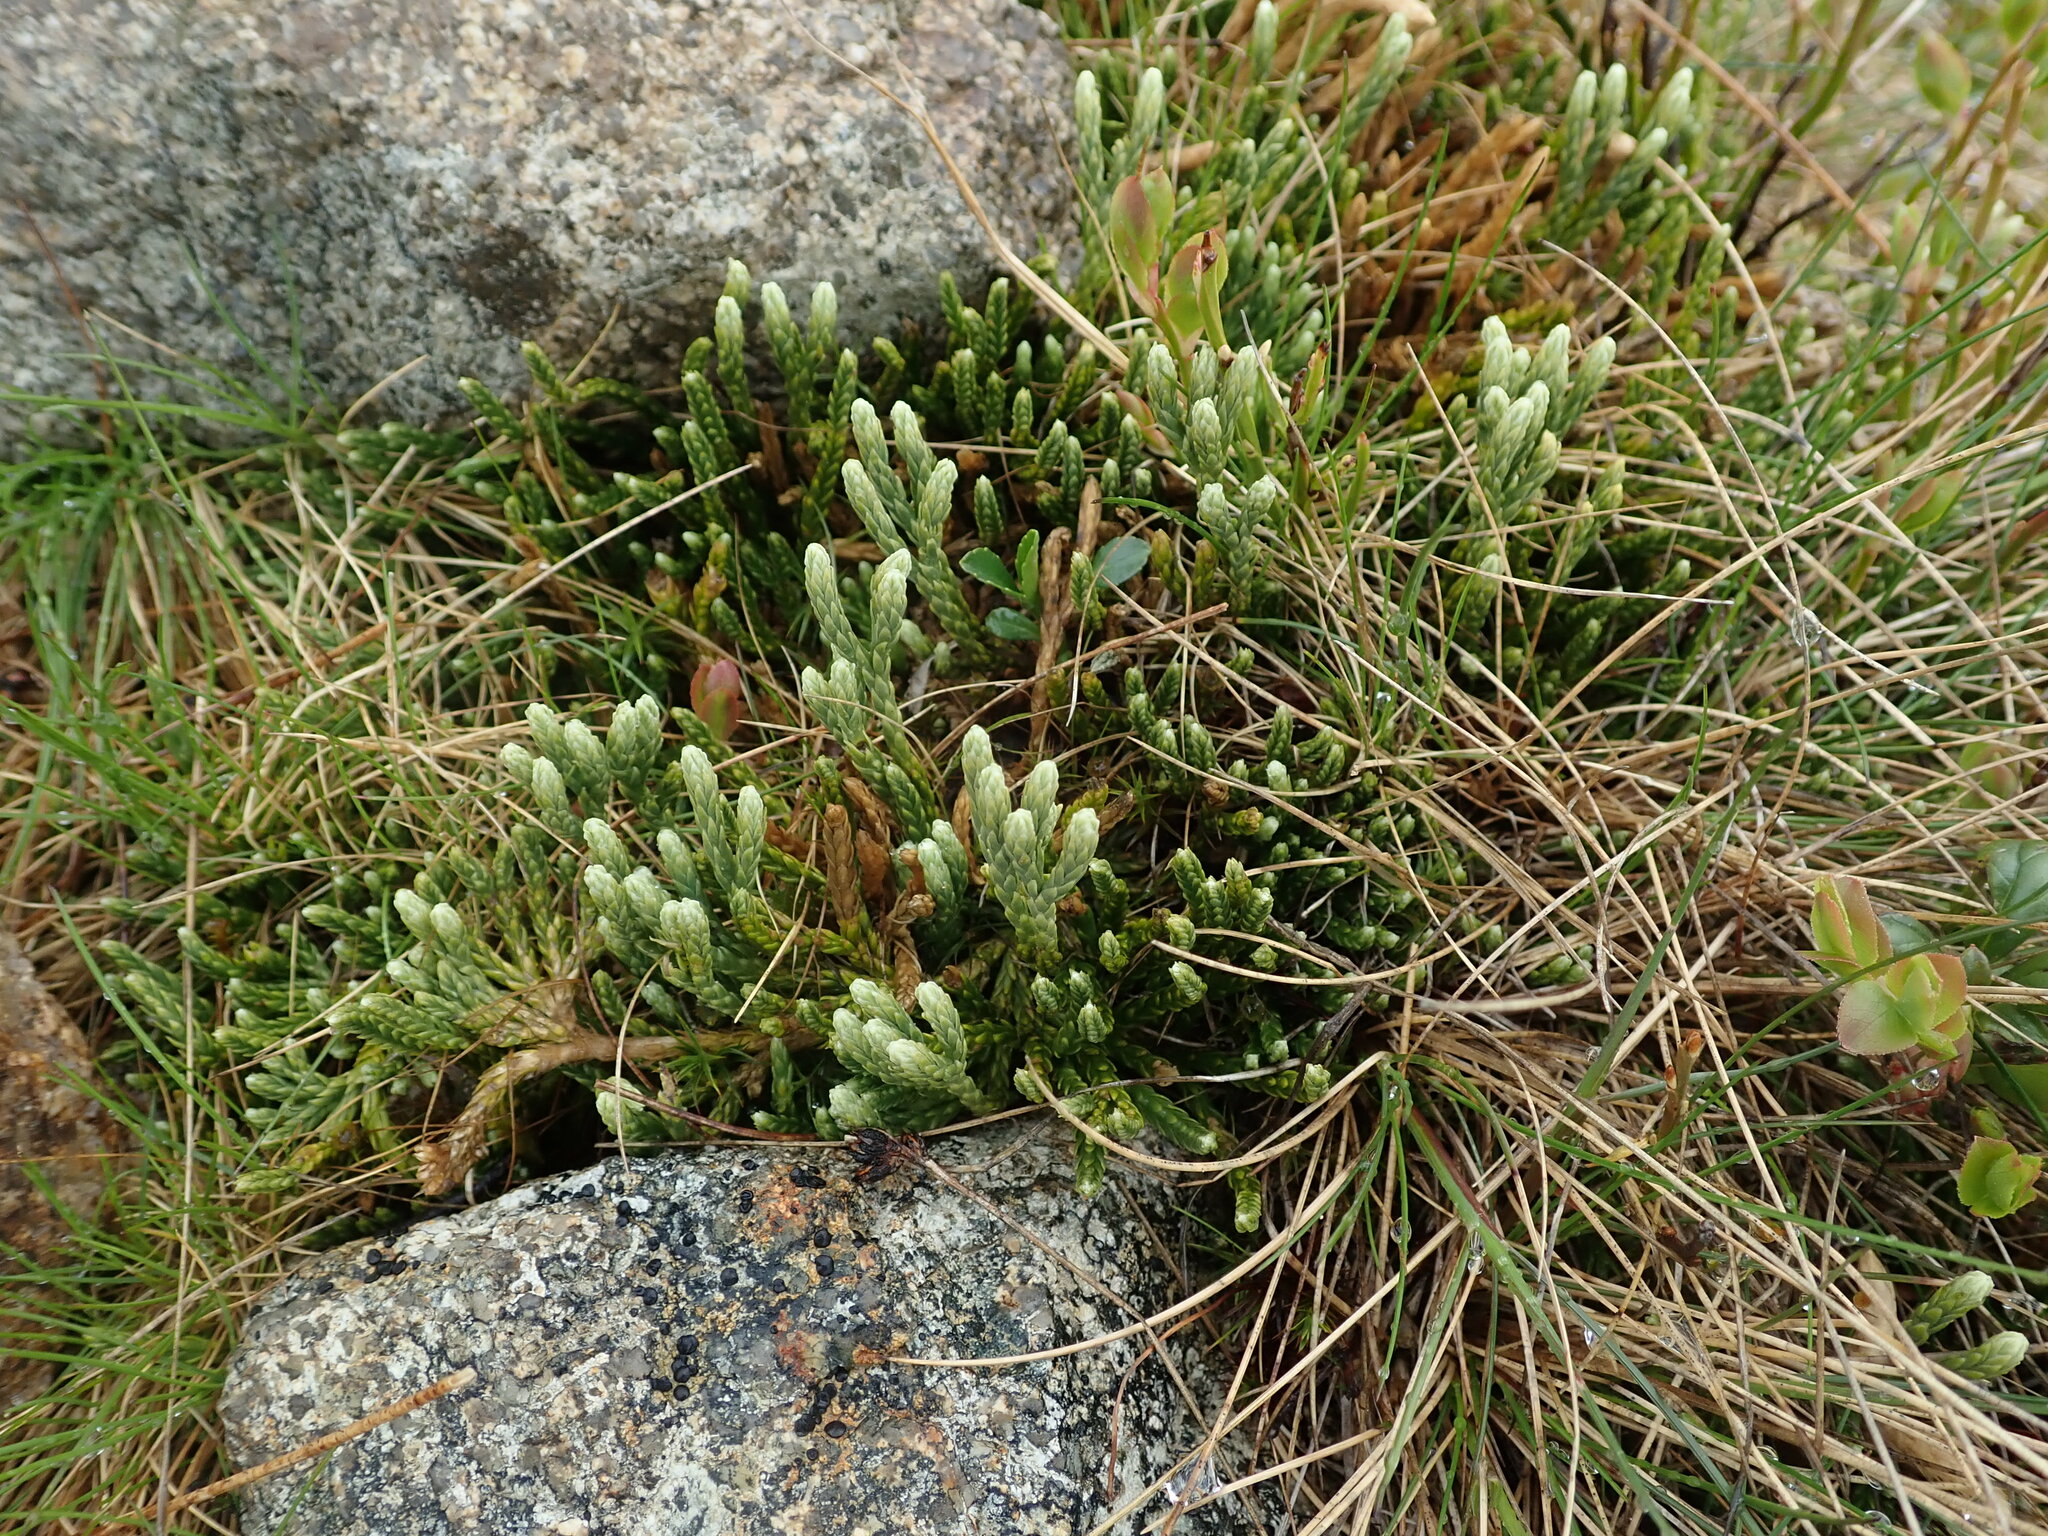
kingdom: Plantae
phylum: Tracheophyta
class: Lycopodiopsida
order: Lycopodiales
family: Lycopodiaceae
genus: Diphasiastrum
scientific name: Diphasiastrum alpinum
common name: Alpine clubmoss
